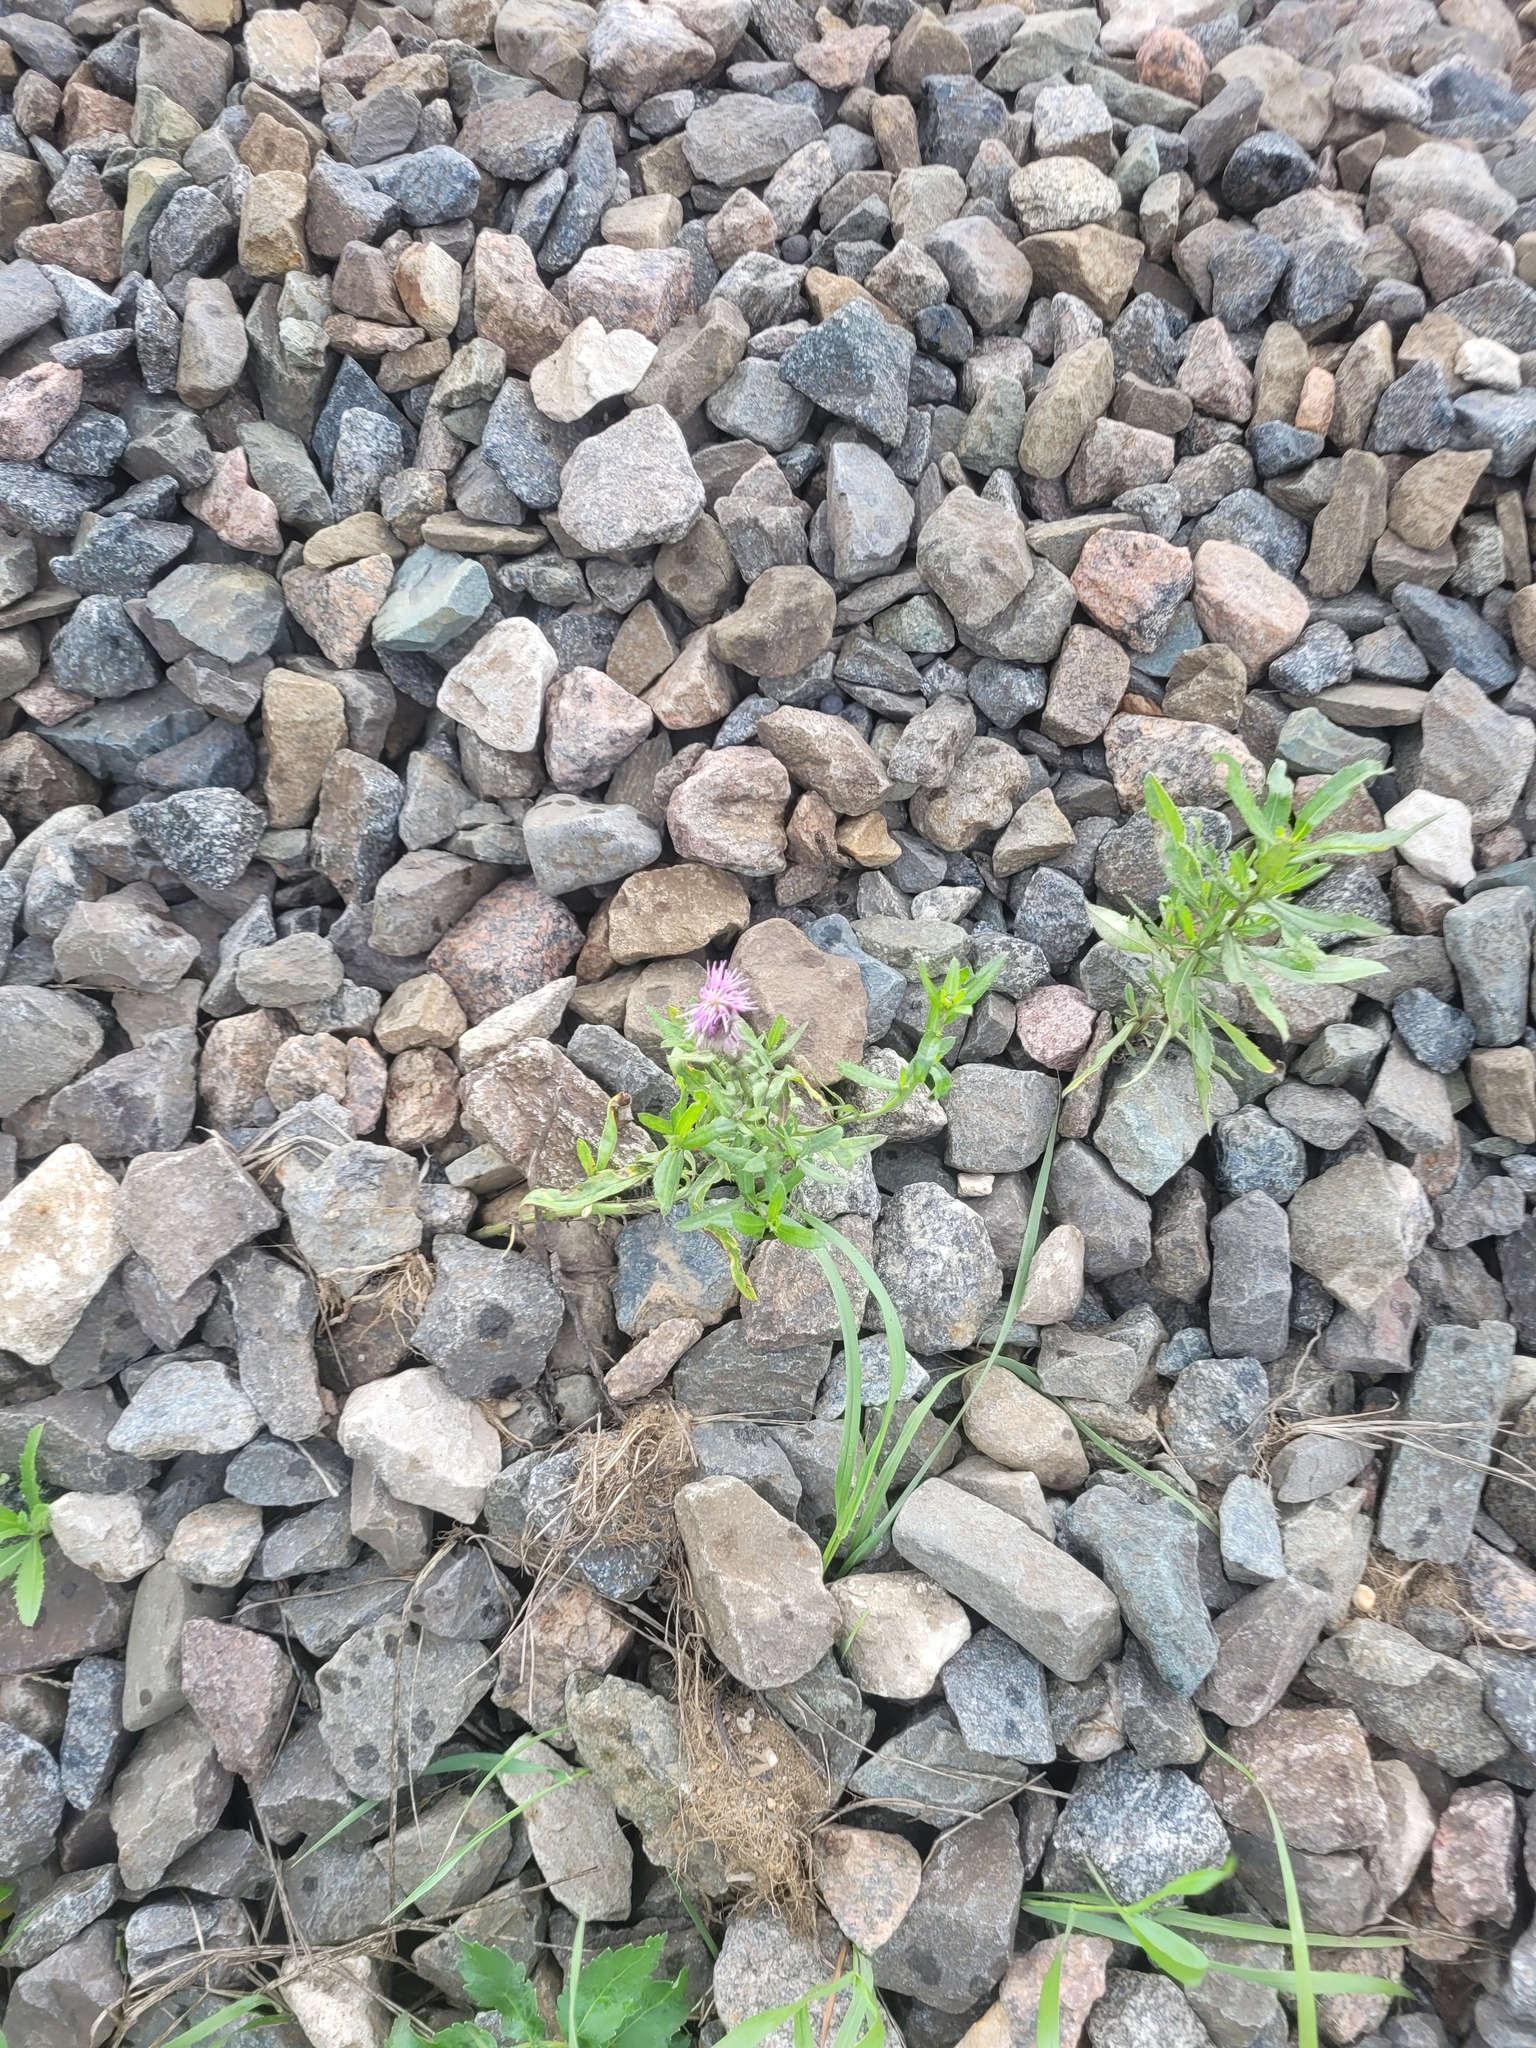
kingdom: Plantae
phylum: Tracheophyta
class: Magnoliopsida
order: Asterales
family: Asteraceae
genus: Cirsium
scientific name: Cirsium arvense
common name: Creeping thistle
